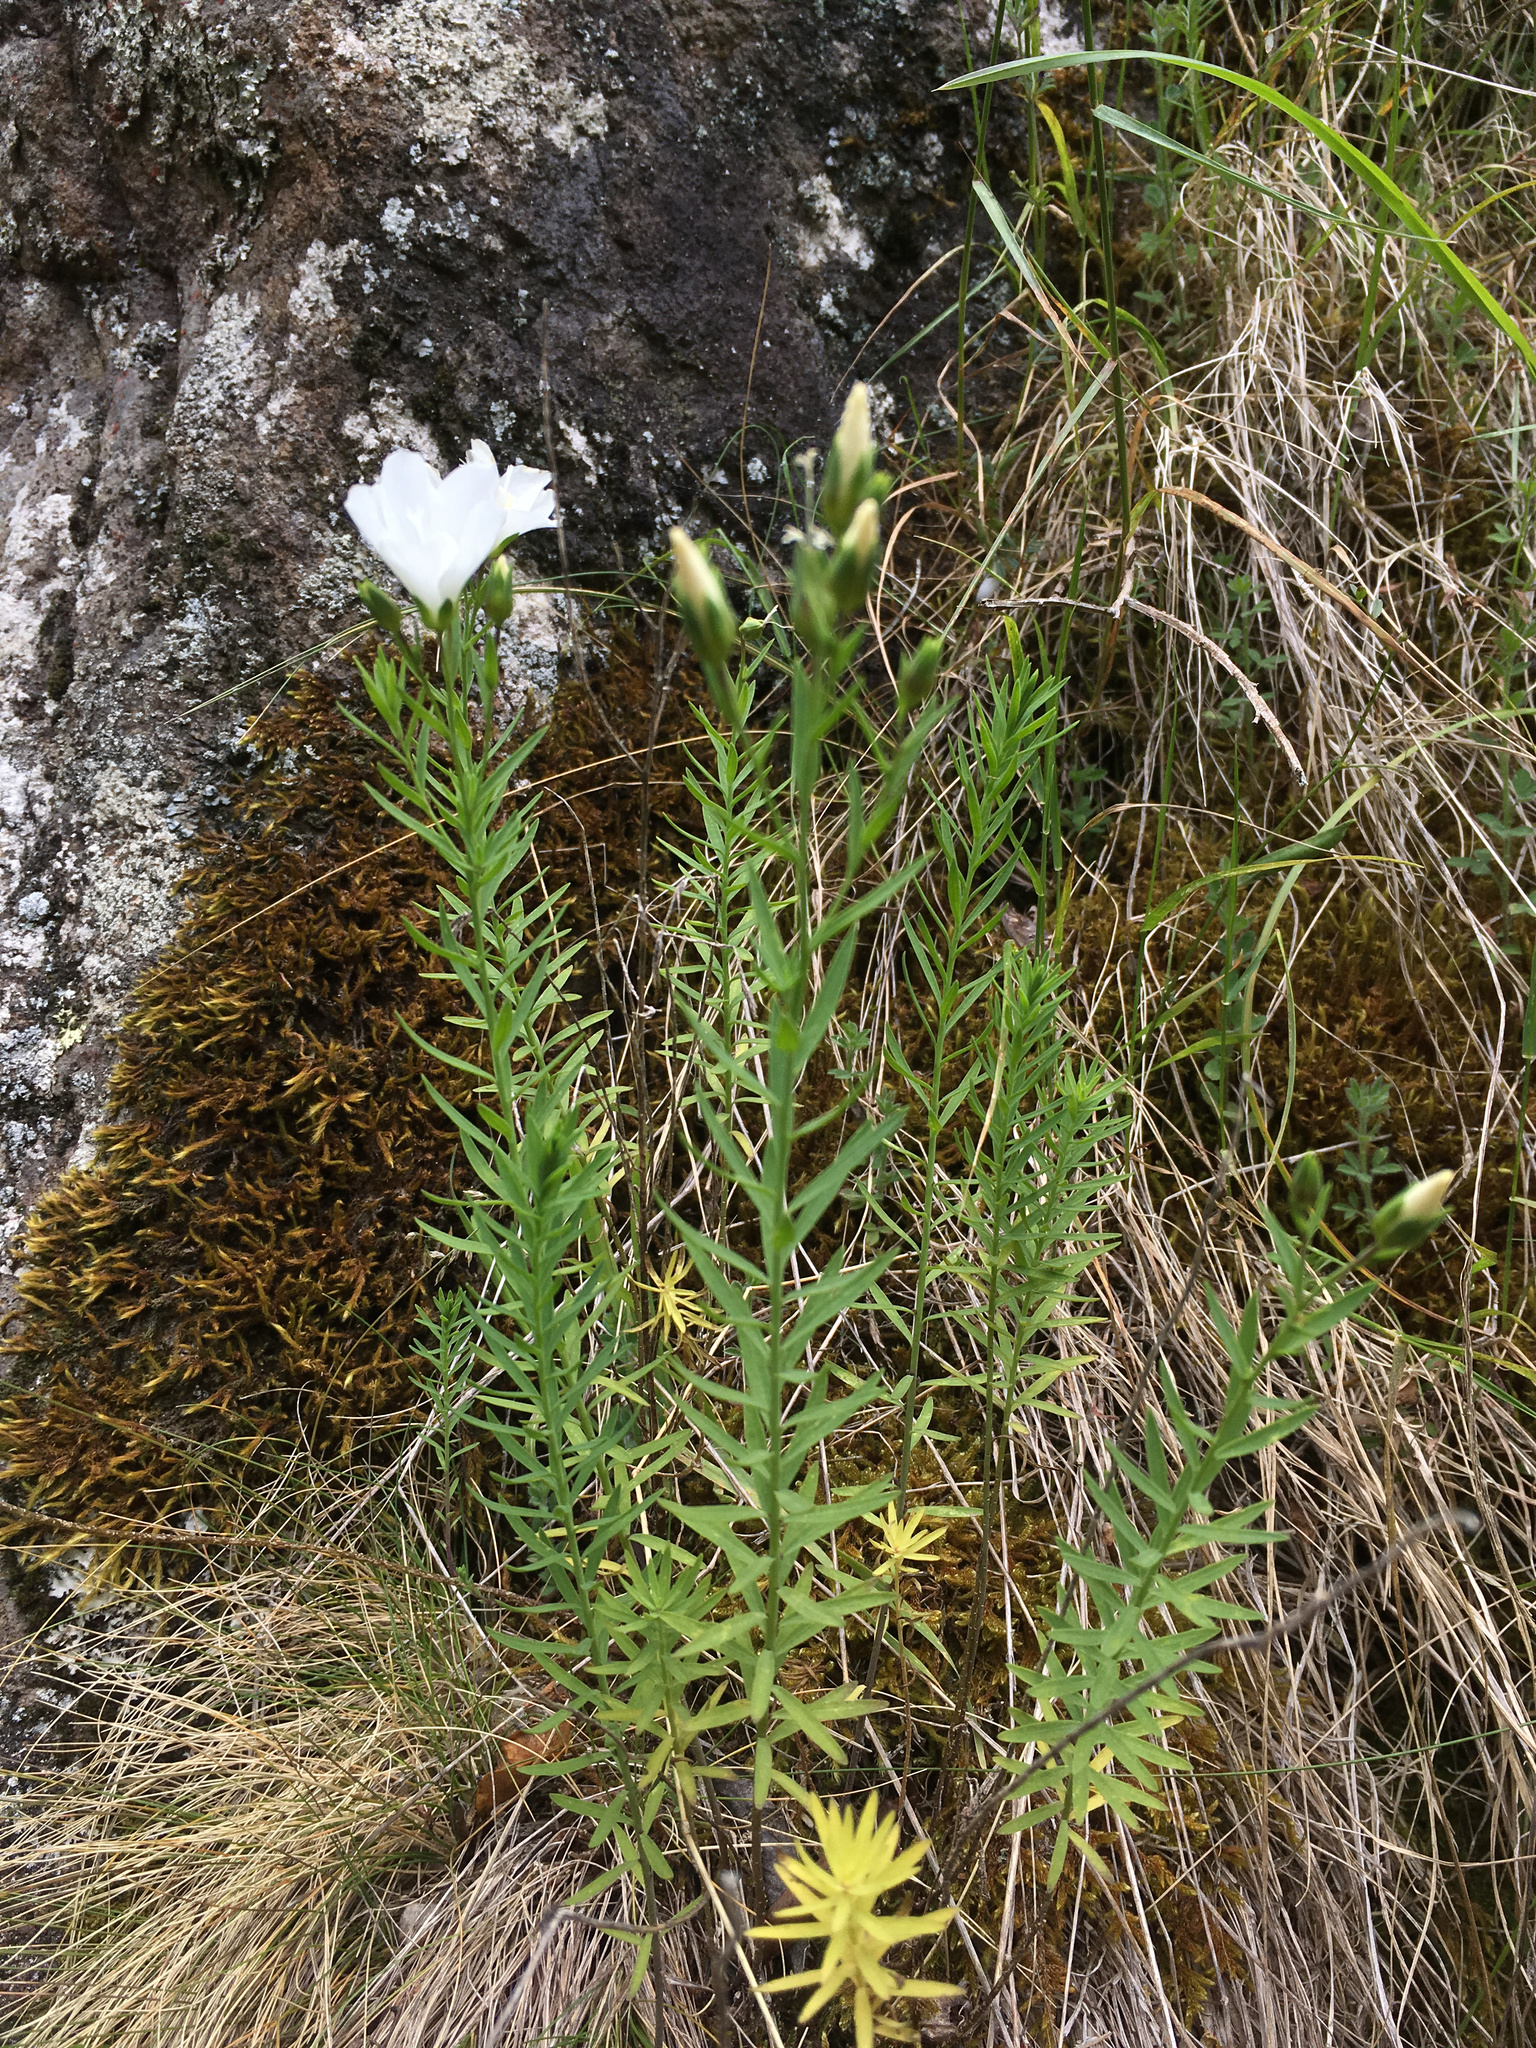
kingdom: Plantae
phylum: Tracheophyta
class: Magnoliopsida
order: Malpighiales
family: Linaceae
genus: Linum
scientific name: Linum monogynum
